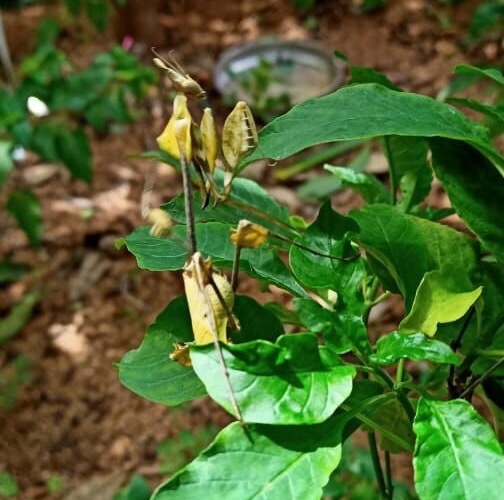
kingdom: Animalia
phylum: Arthropoda
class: Insecta
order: Mantodea
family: Empusidae
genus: Gongylus
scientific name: Gongylus gongylodes
